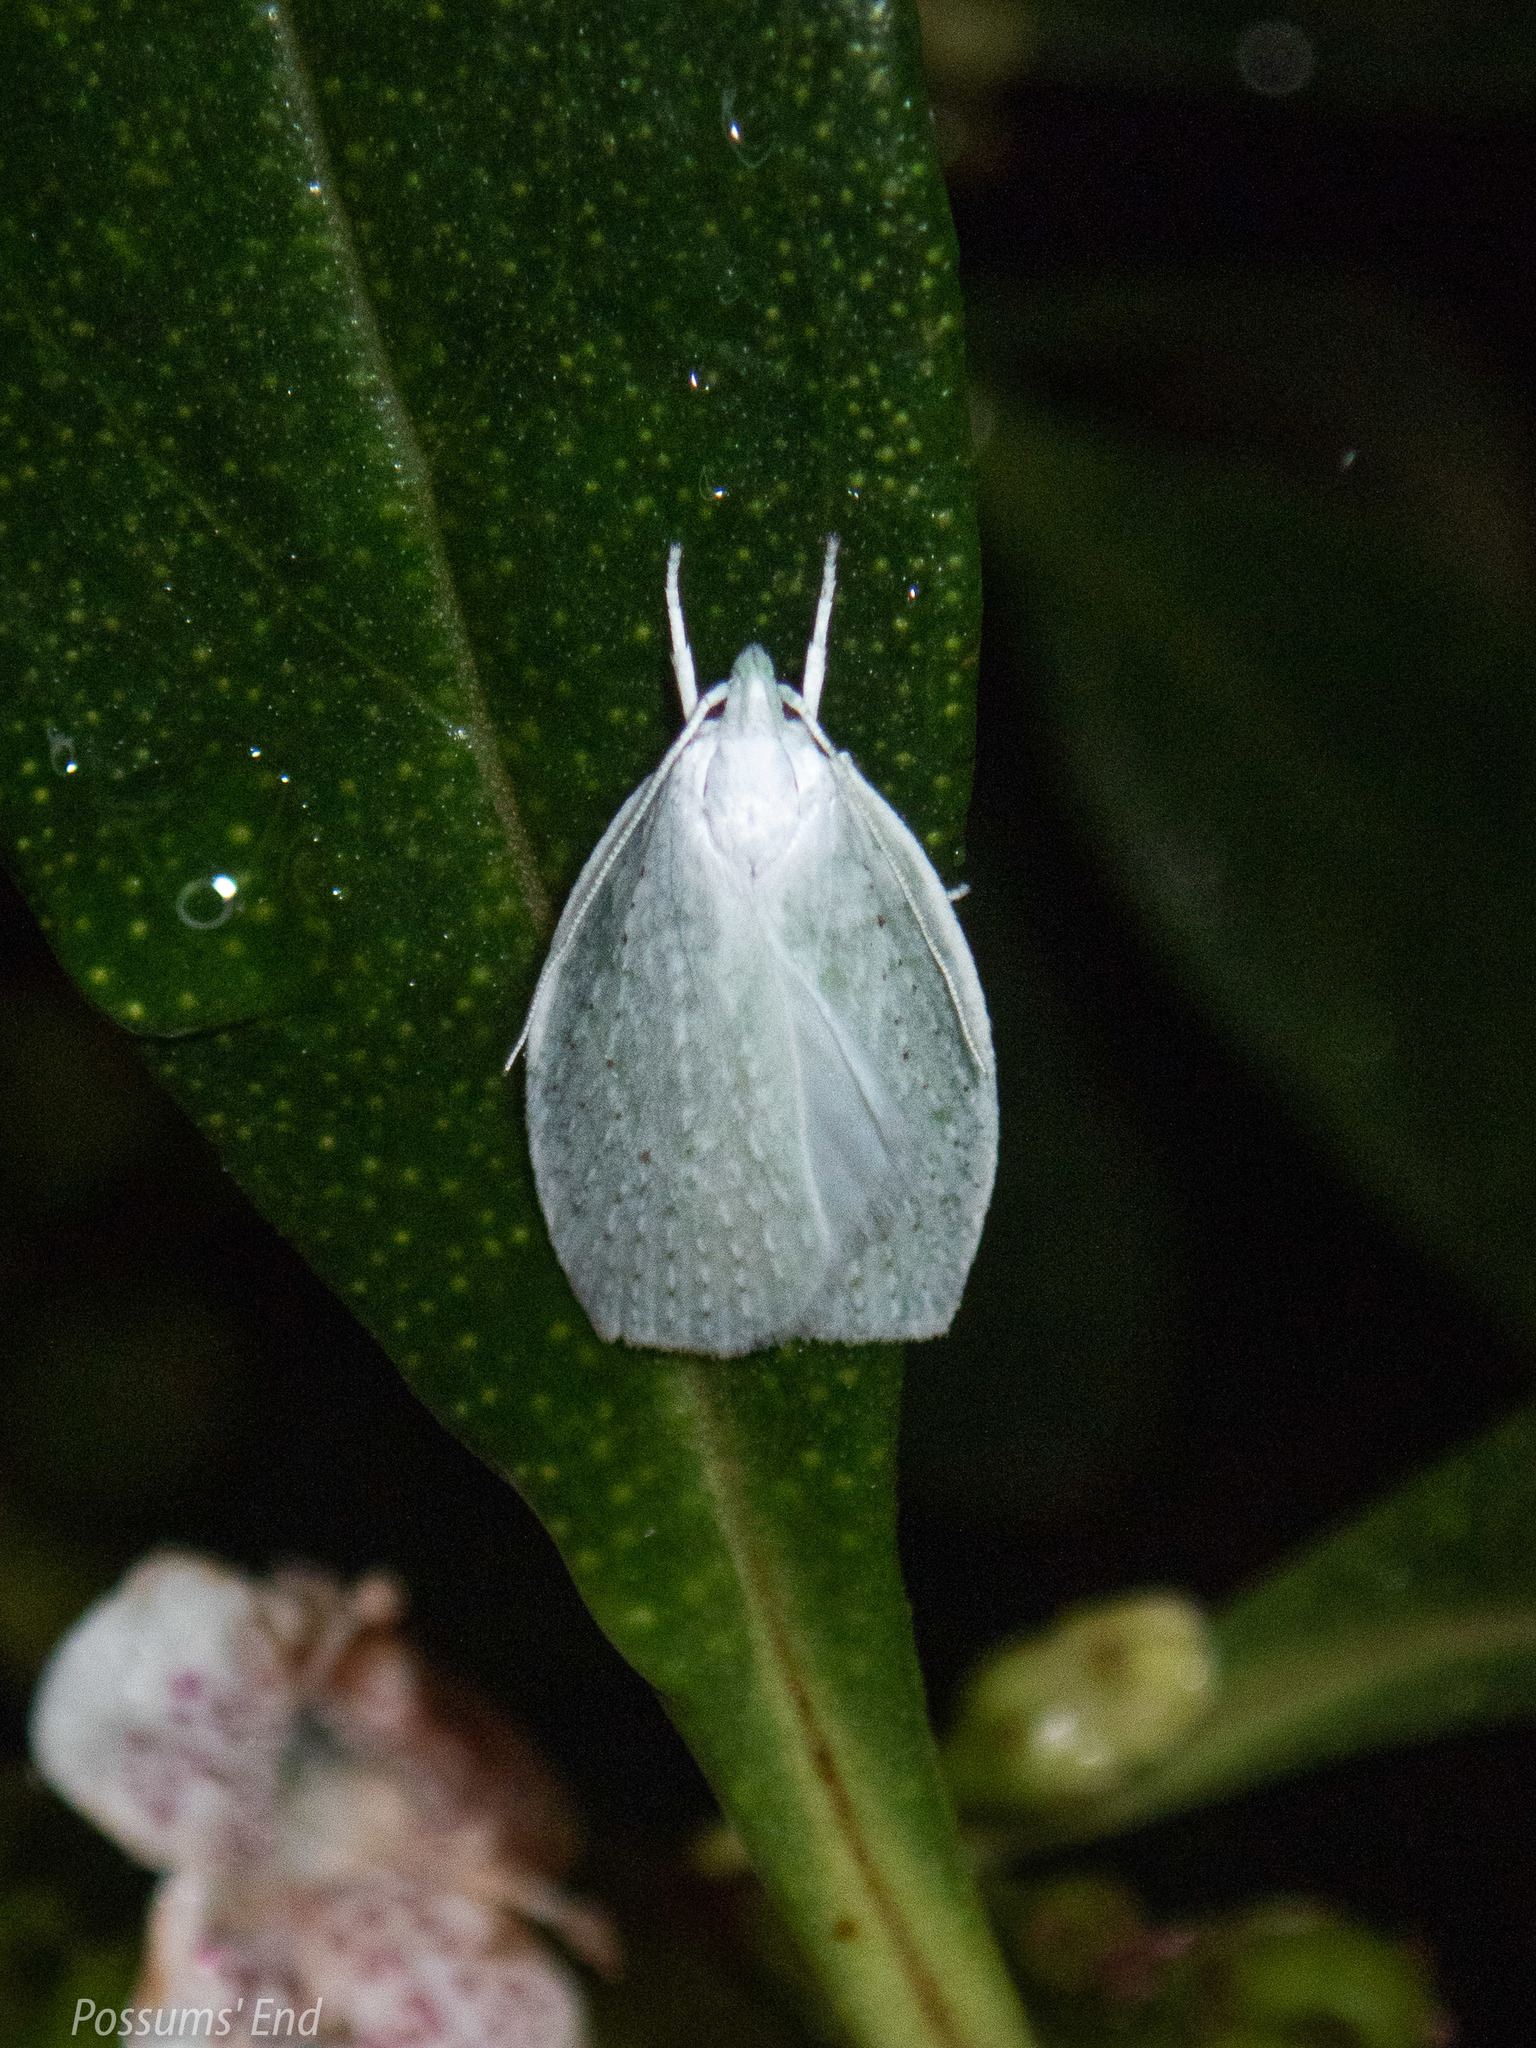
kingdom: Animalia
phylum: Arthropoda
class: Insecta
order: Lepidoptera
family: Oecophoridae
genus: Nymphostola
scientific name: Nymphostola galactina
